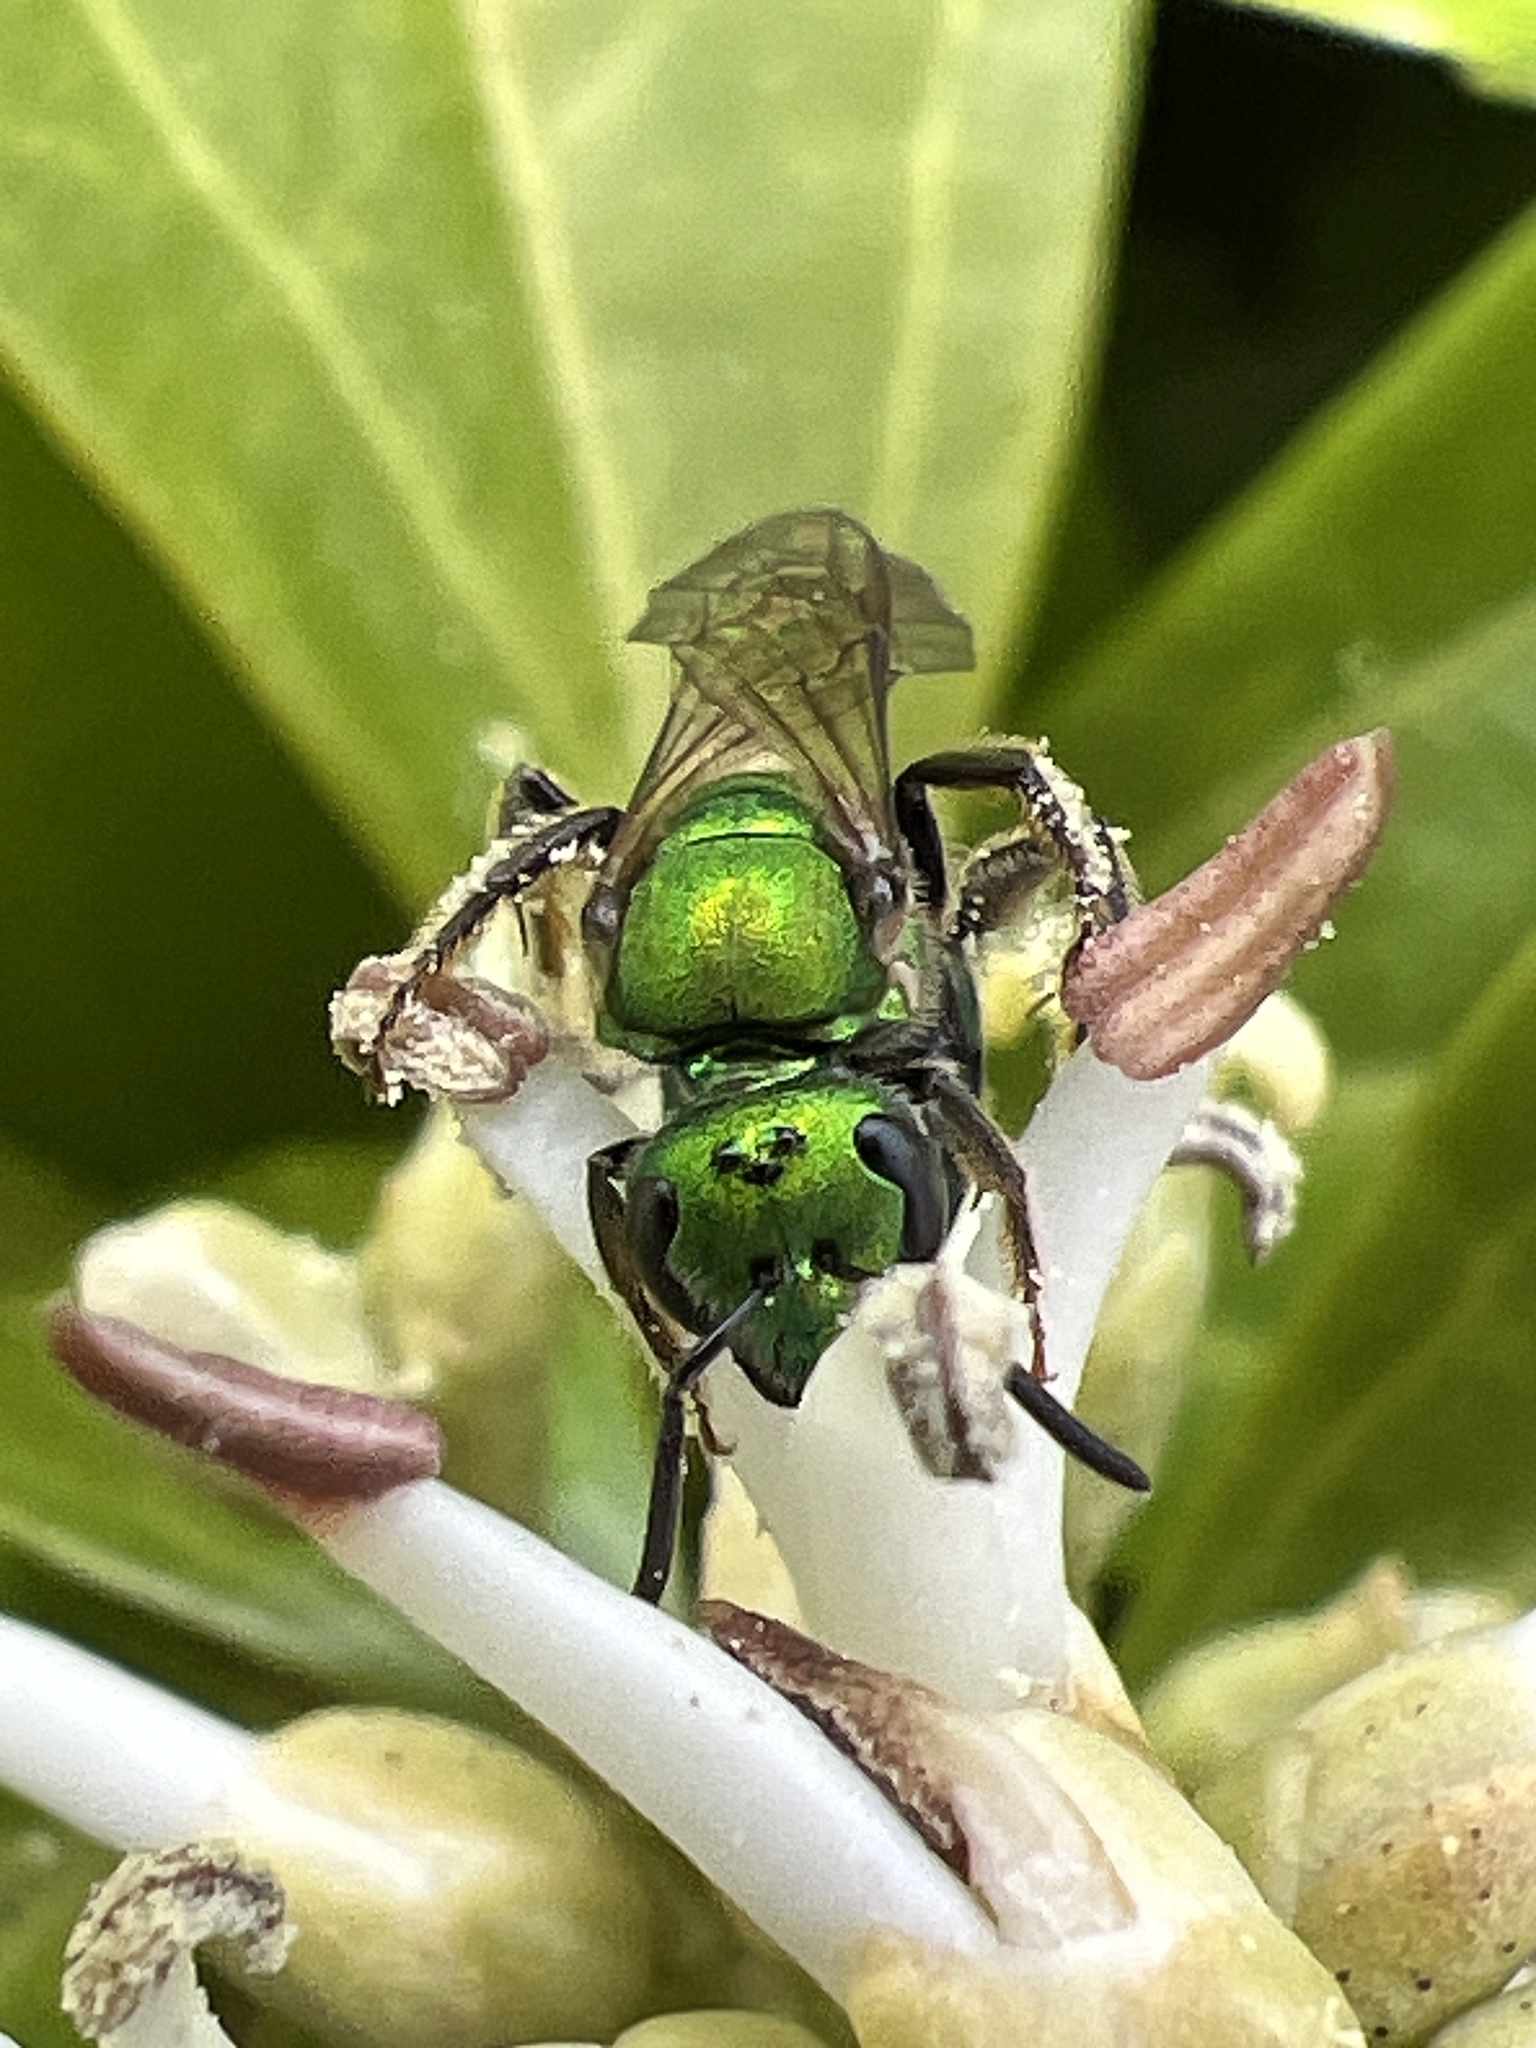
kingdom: Animalia
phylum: Arthropoda
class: Insecta
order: Hymenoptera
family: Halictidae
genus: Augochlora
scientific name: Augochlora pura
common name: Pure green sweat bee
